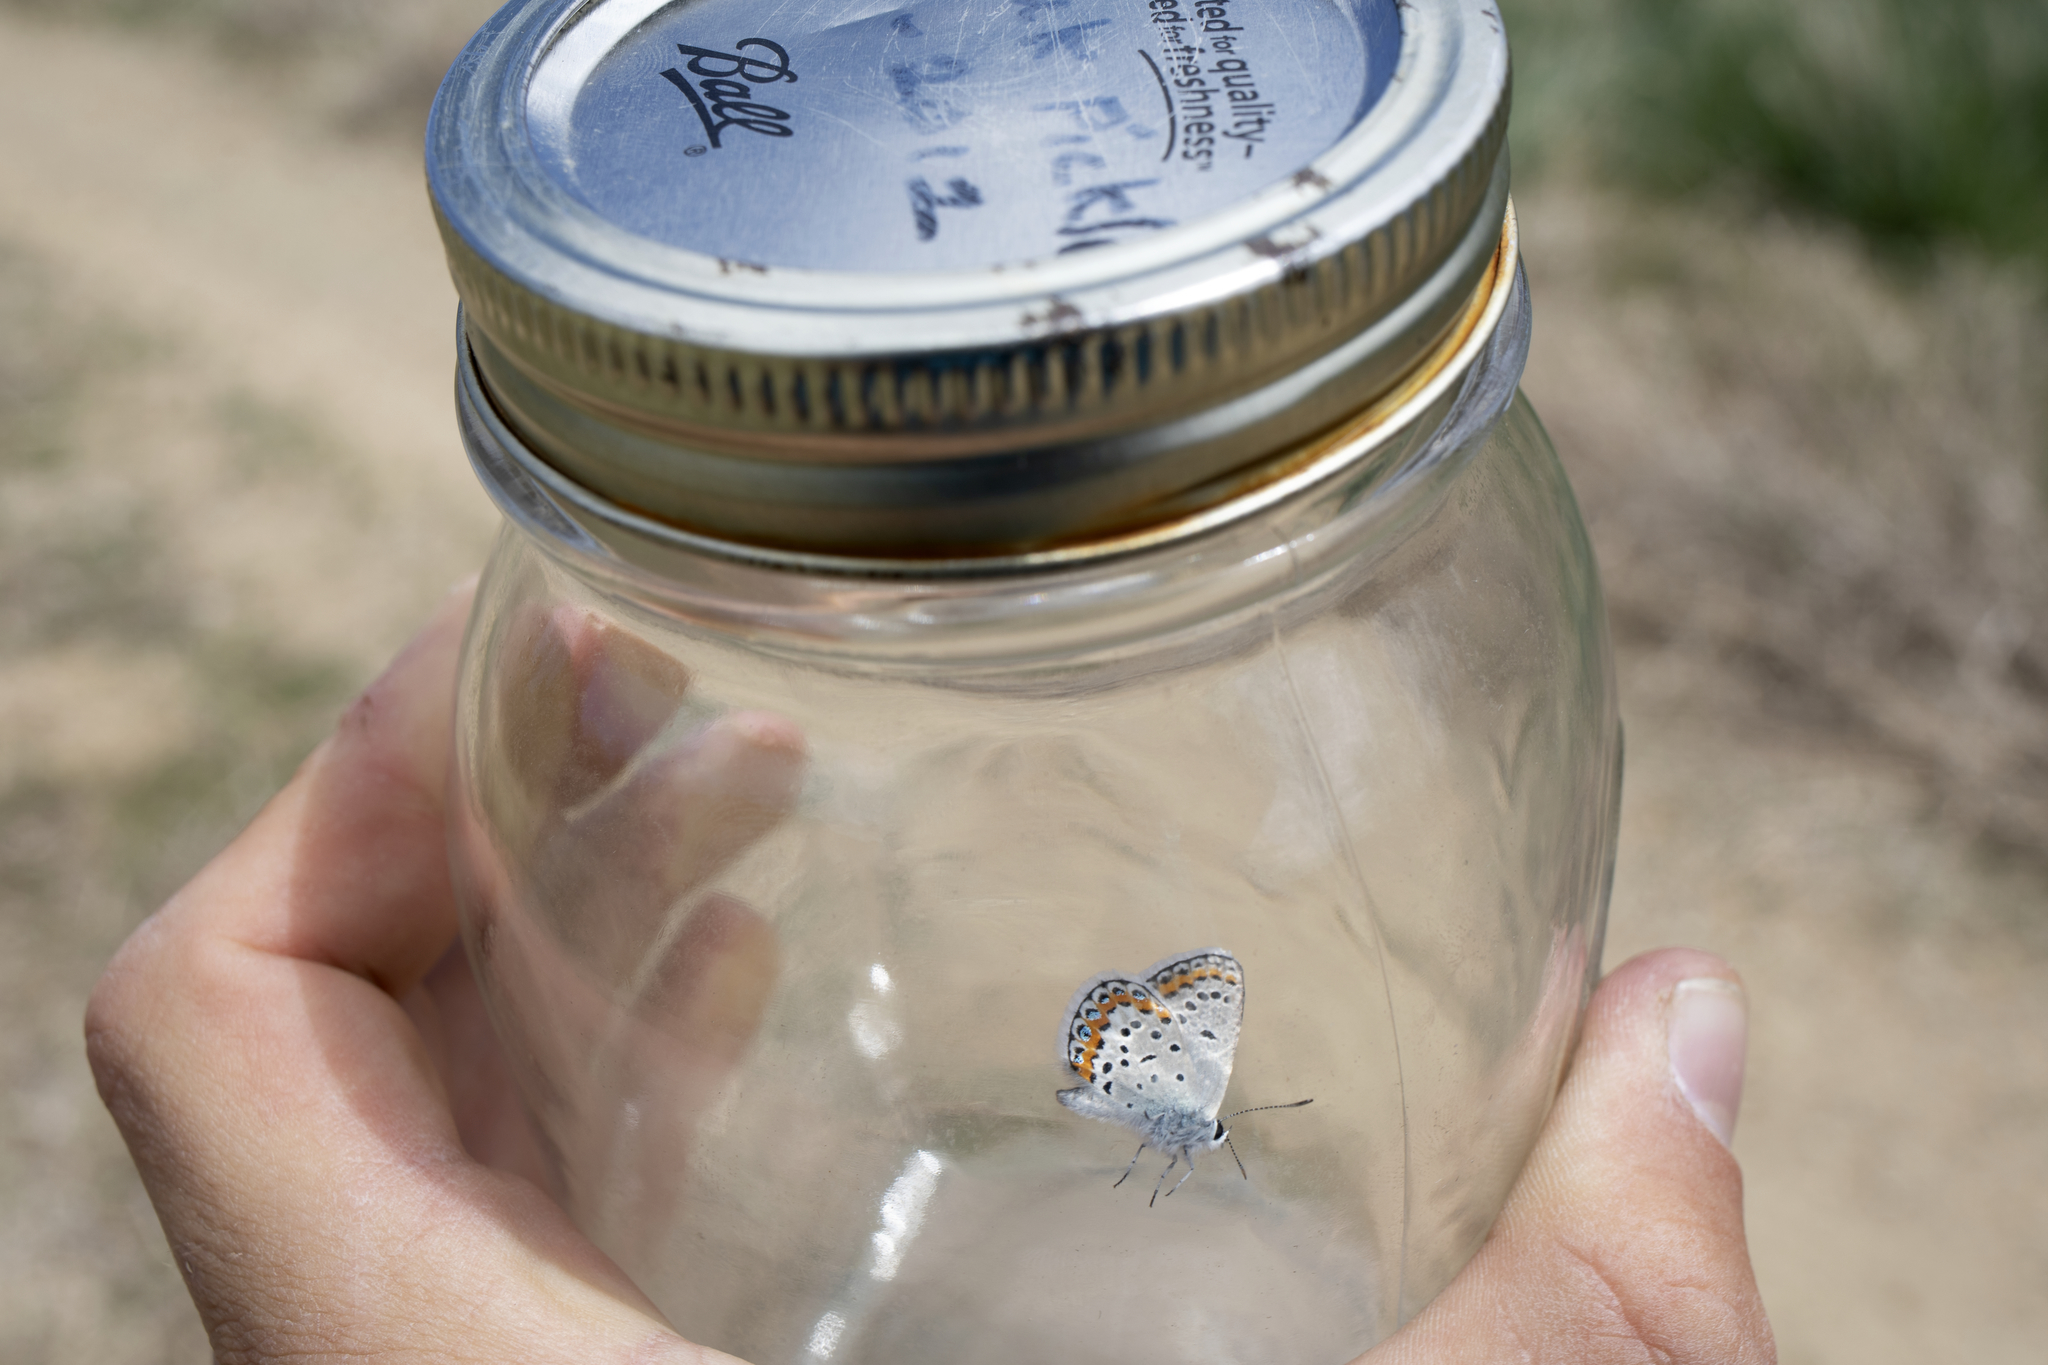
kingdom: Animalia
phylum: Arthropoda
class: Insecta
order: Lepidoptera
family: Lycaenidae
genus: Lycaeides
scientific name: Lycaeides melissa
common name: Melissa blue
